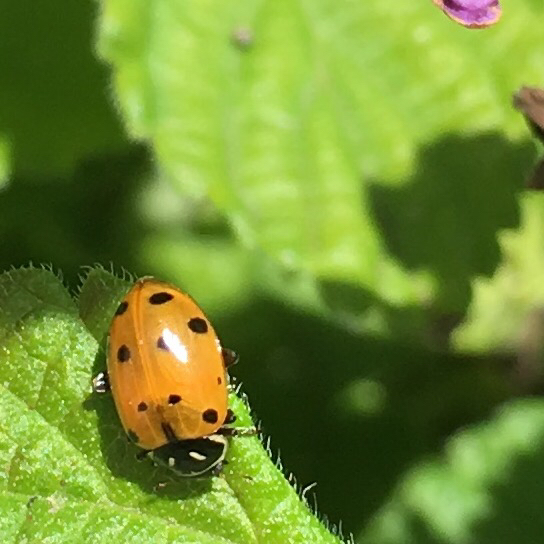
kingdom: Animalia
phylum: Arthropoda
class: Insecta
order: Coleoptera
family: Coccinellidae
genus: Hippodamia
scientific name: Hippodamia convergens
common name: Convergent lady beetle
